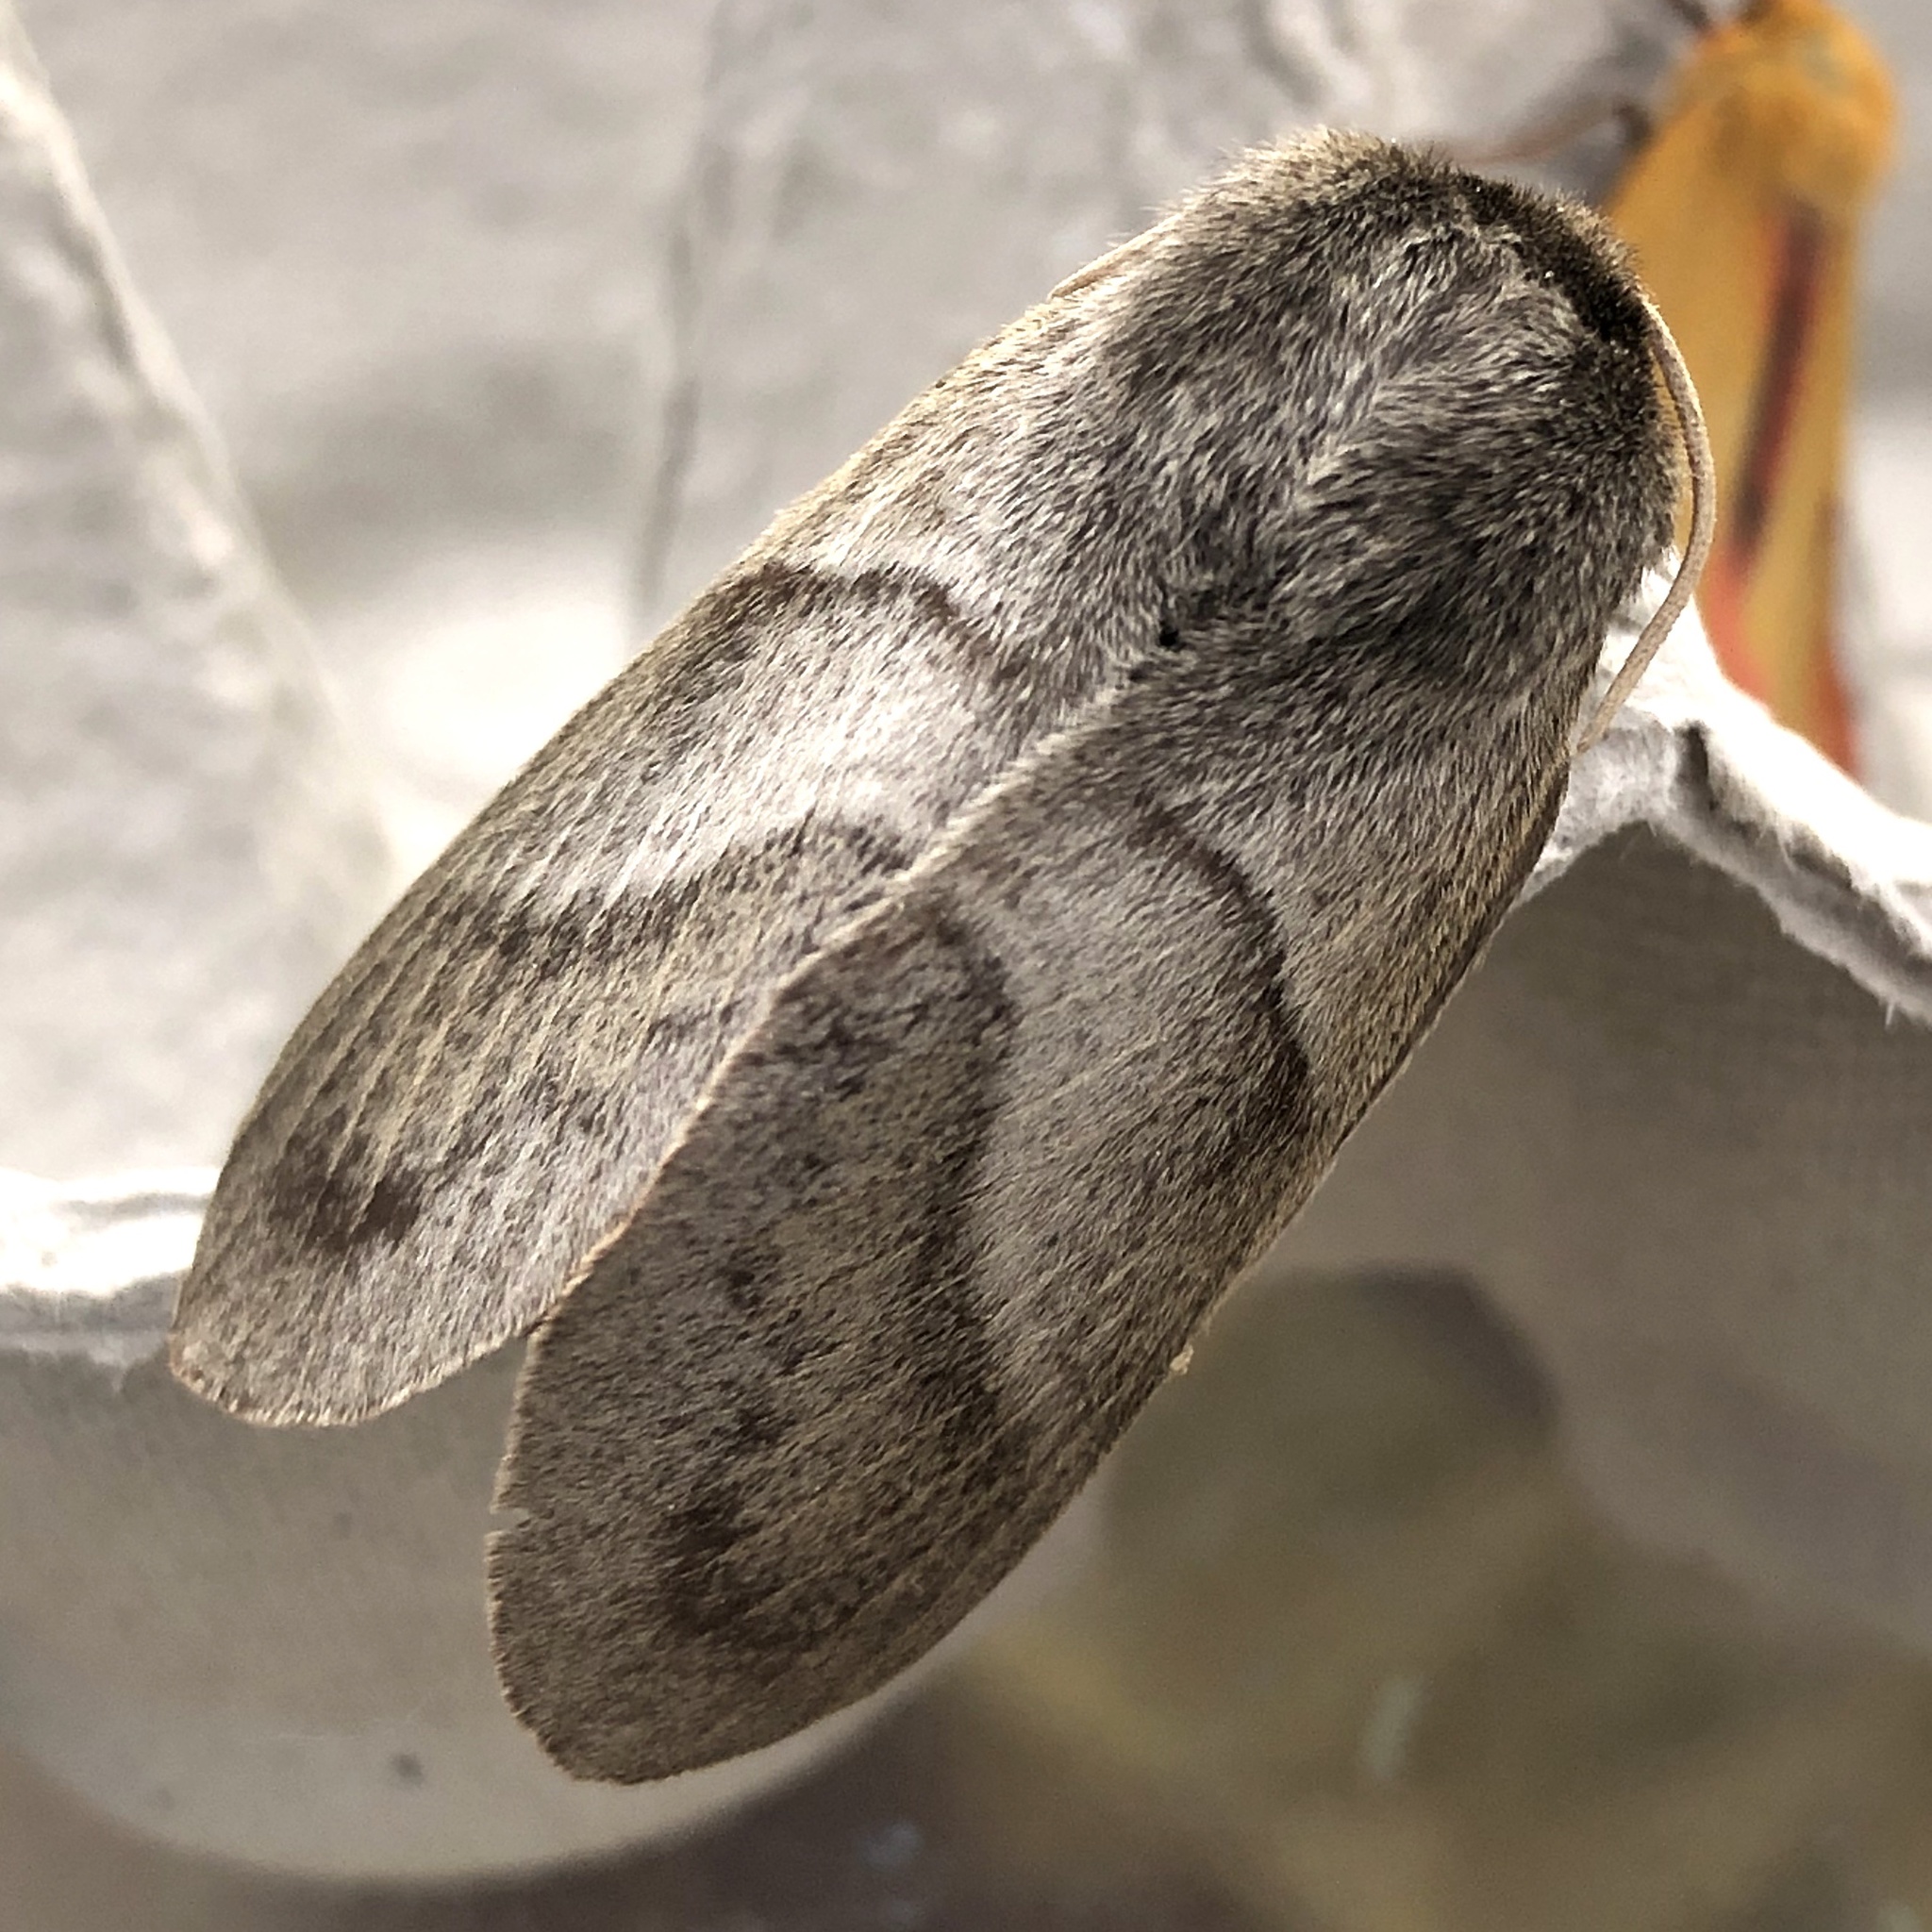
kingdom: Animalia
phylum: Arthropoda
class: Insecta
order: Lepidoptera
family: Lasiocampidae
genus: Macrothylacia
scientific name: Macrothylacia rubi
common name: Fox moth
